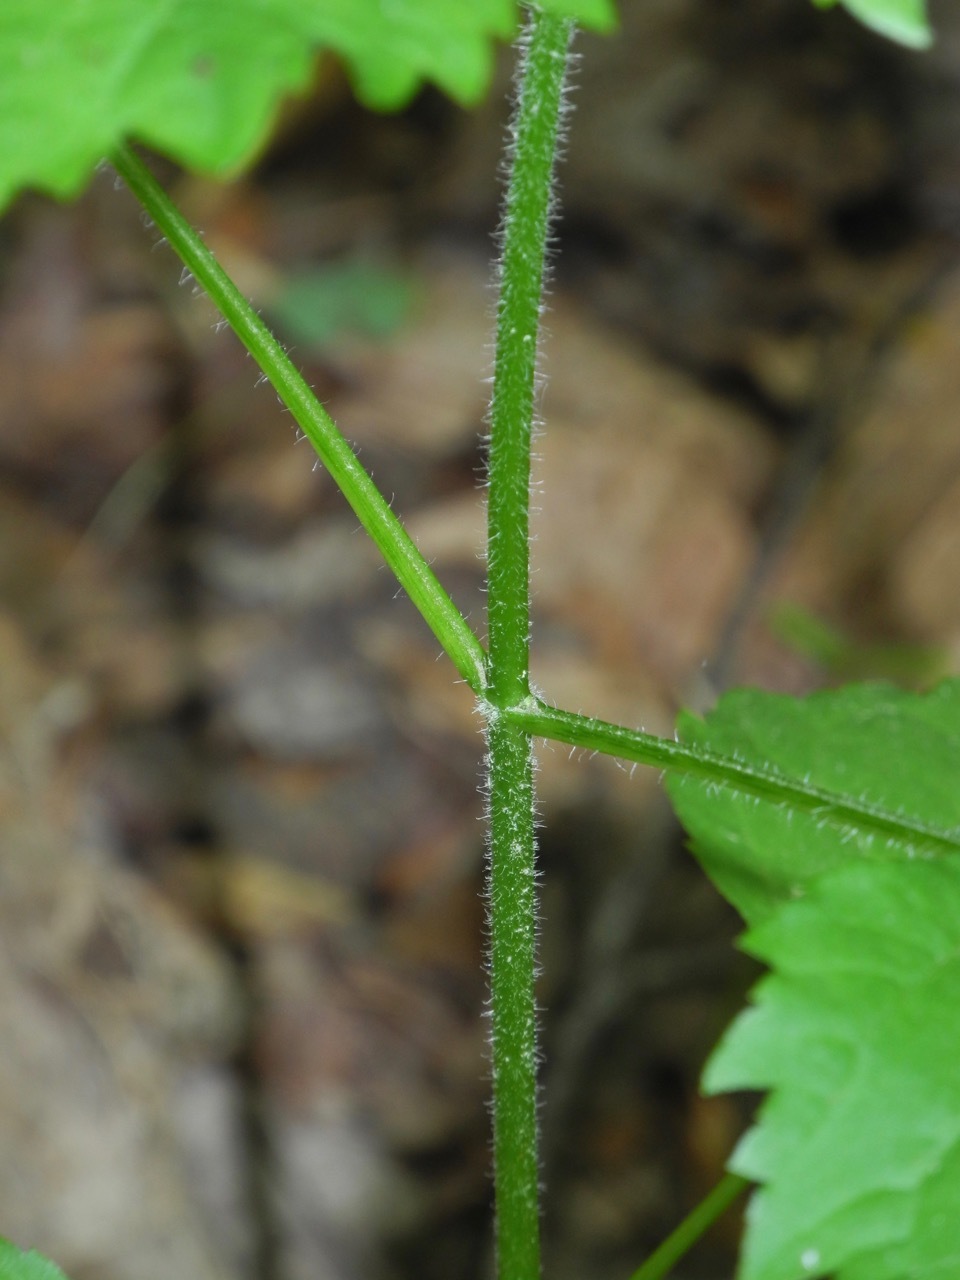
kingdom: Plantae
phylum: Tracheophyta
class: Magnoliopsida
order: Rosales
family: Urticaceae
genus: Urtica
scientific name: Urtica dioica
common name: Common nettle
